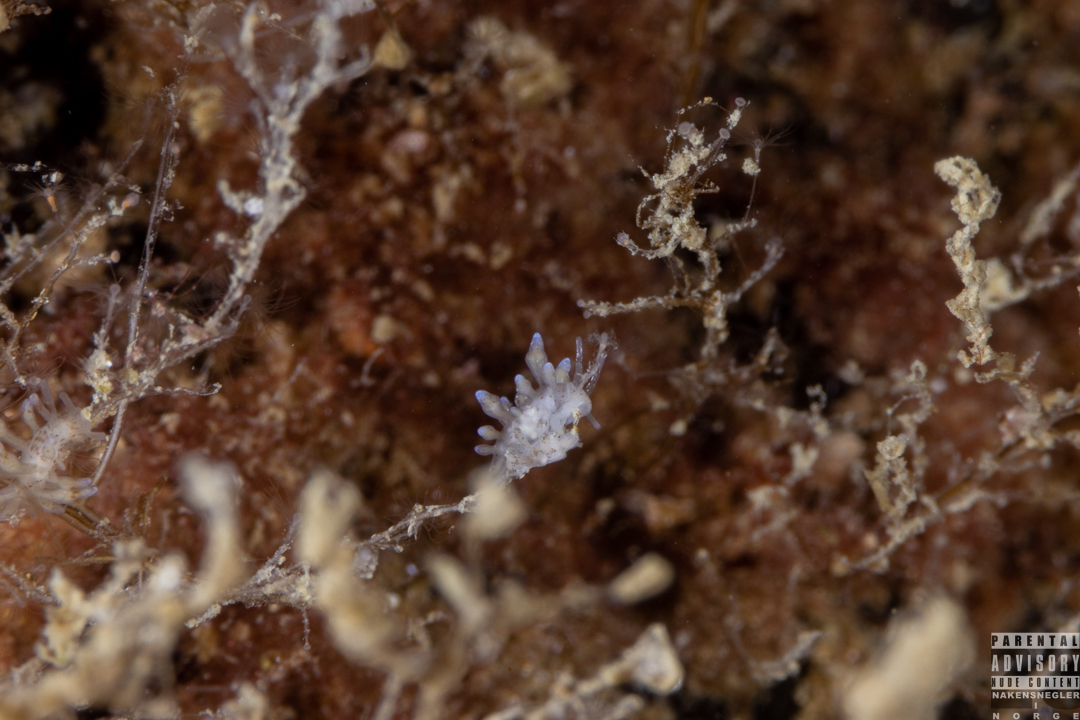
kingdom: Animalia
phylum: Mollusca
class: Gastropoda
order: Nudibranchia
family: Eubranchidae
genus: Eubranchus
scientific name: Eubranchus rupium
